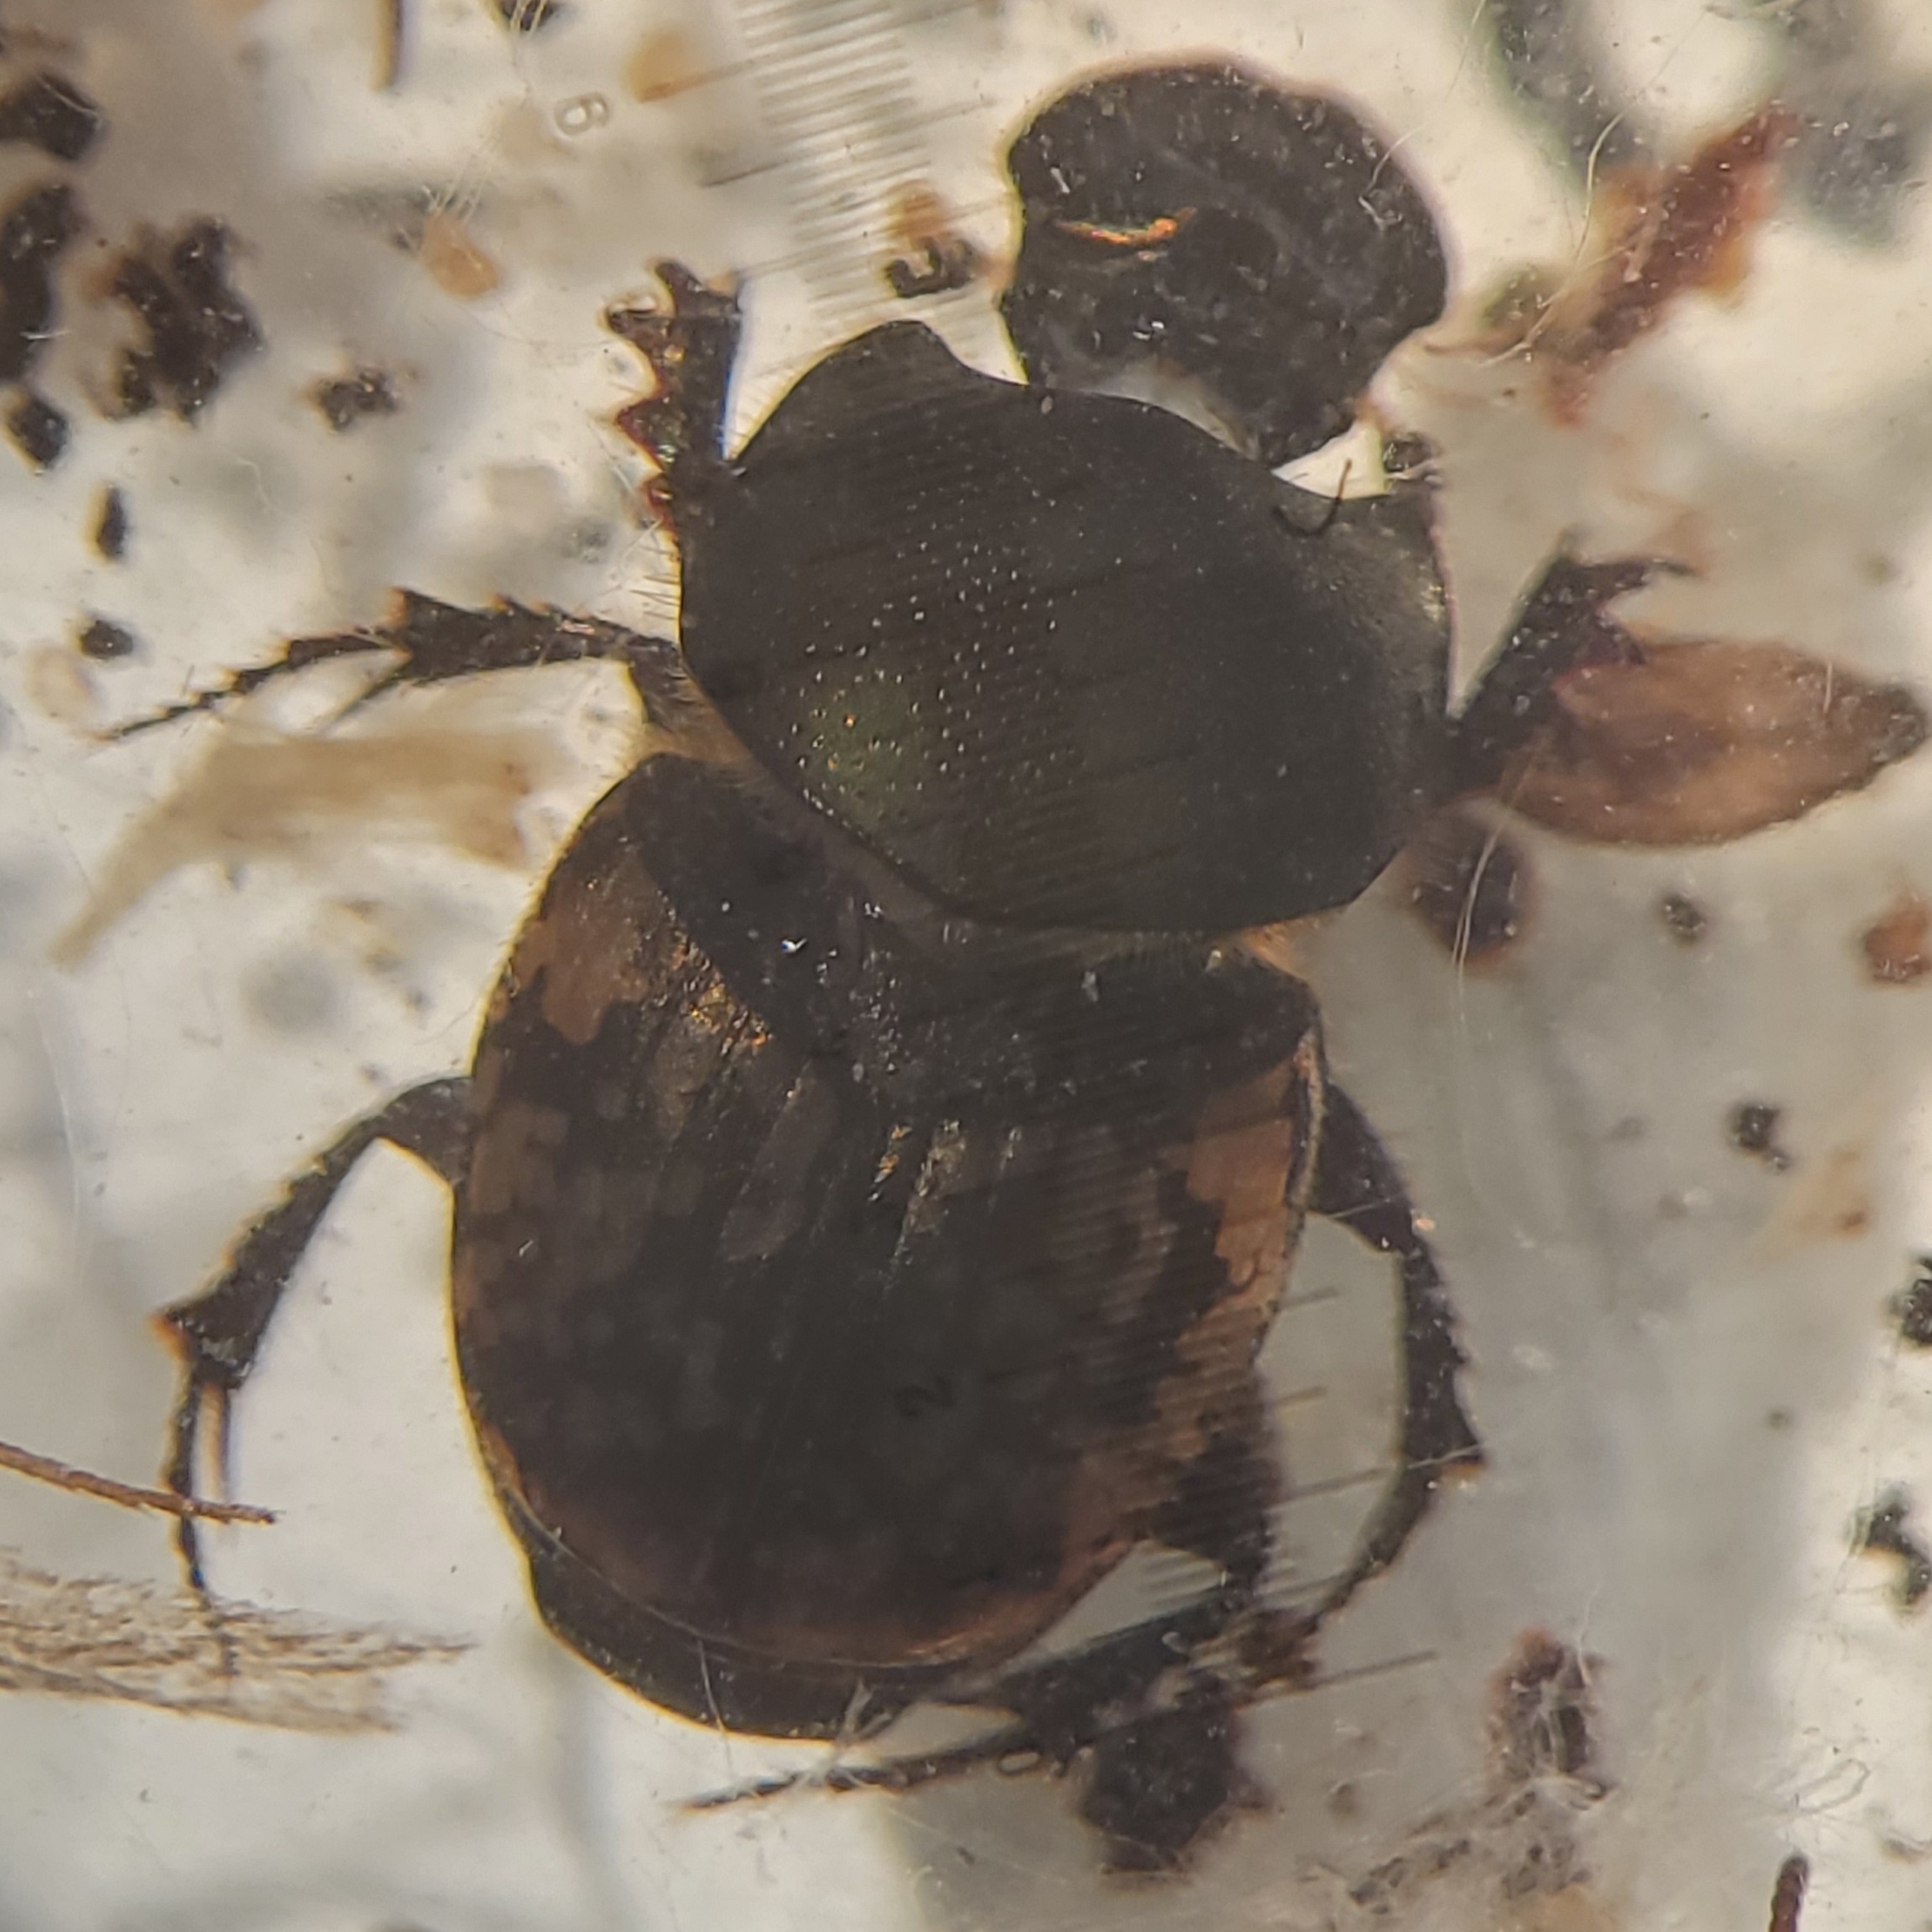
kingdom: Animalia
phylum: Arthropoda
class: Insecta
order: Coleoptera
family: Scarabaeidae
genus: Onthophagus
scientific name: Onthophagus nuchicornis
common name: Mottled dung beetle
